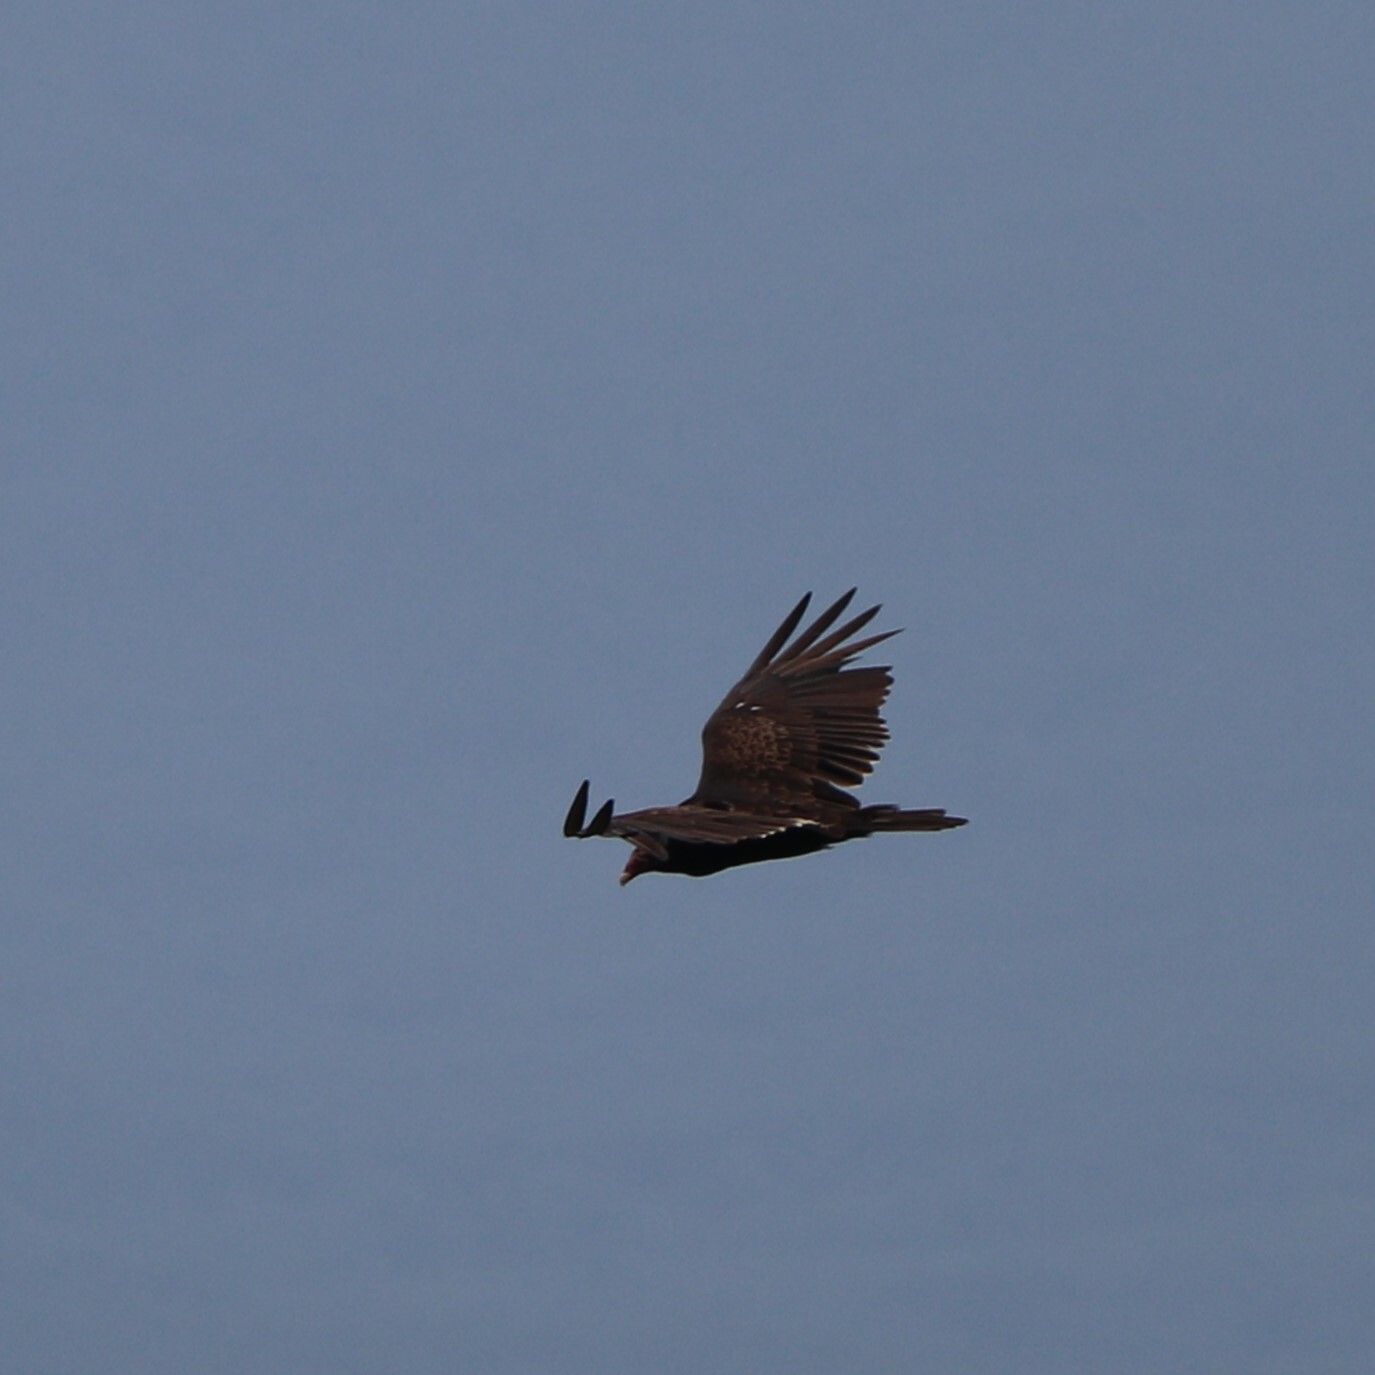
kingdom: Animalia
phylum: Chordata
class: Aves
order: Accipitriformes
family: Cathartidae
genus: Cathartes
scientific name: Cathartes aura
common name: Turkey vulture
